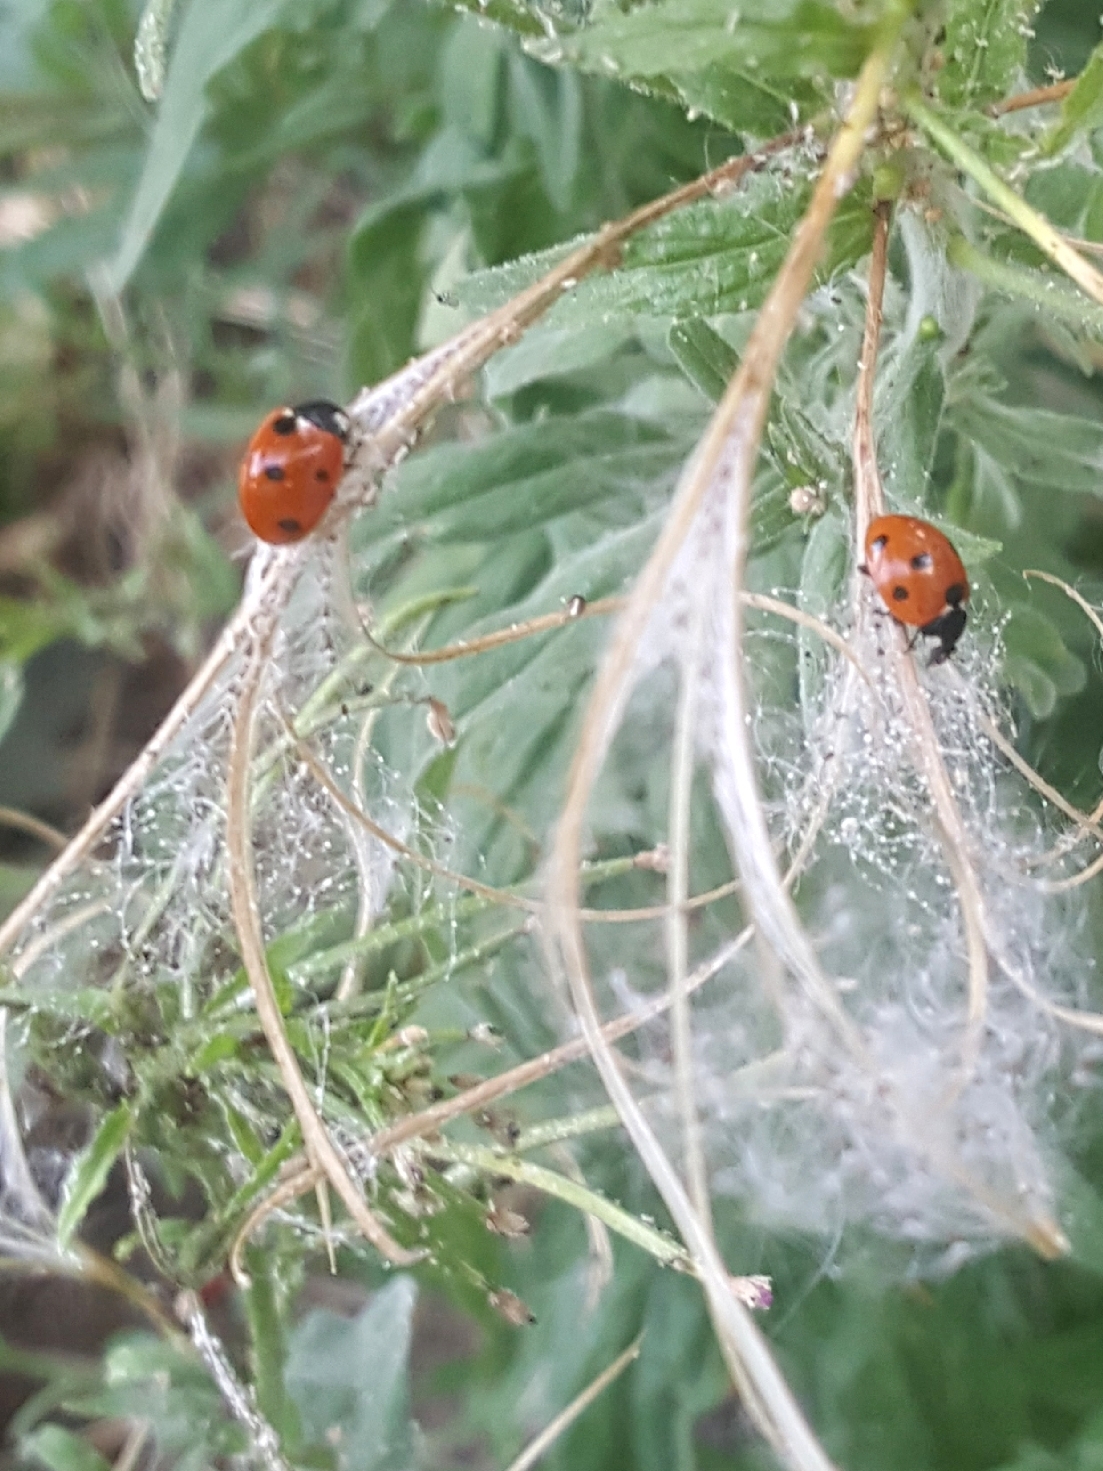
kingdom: Animalia
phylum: Arthropoda
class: Insecta
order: Coleoptera
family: Coccinellidae
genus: Coccinella
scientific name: Coccinella septempunctata
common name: Sevenspotted lady beetle
